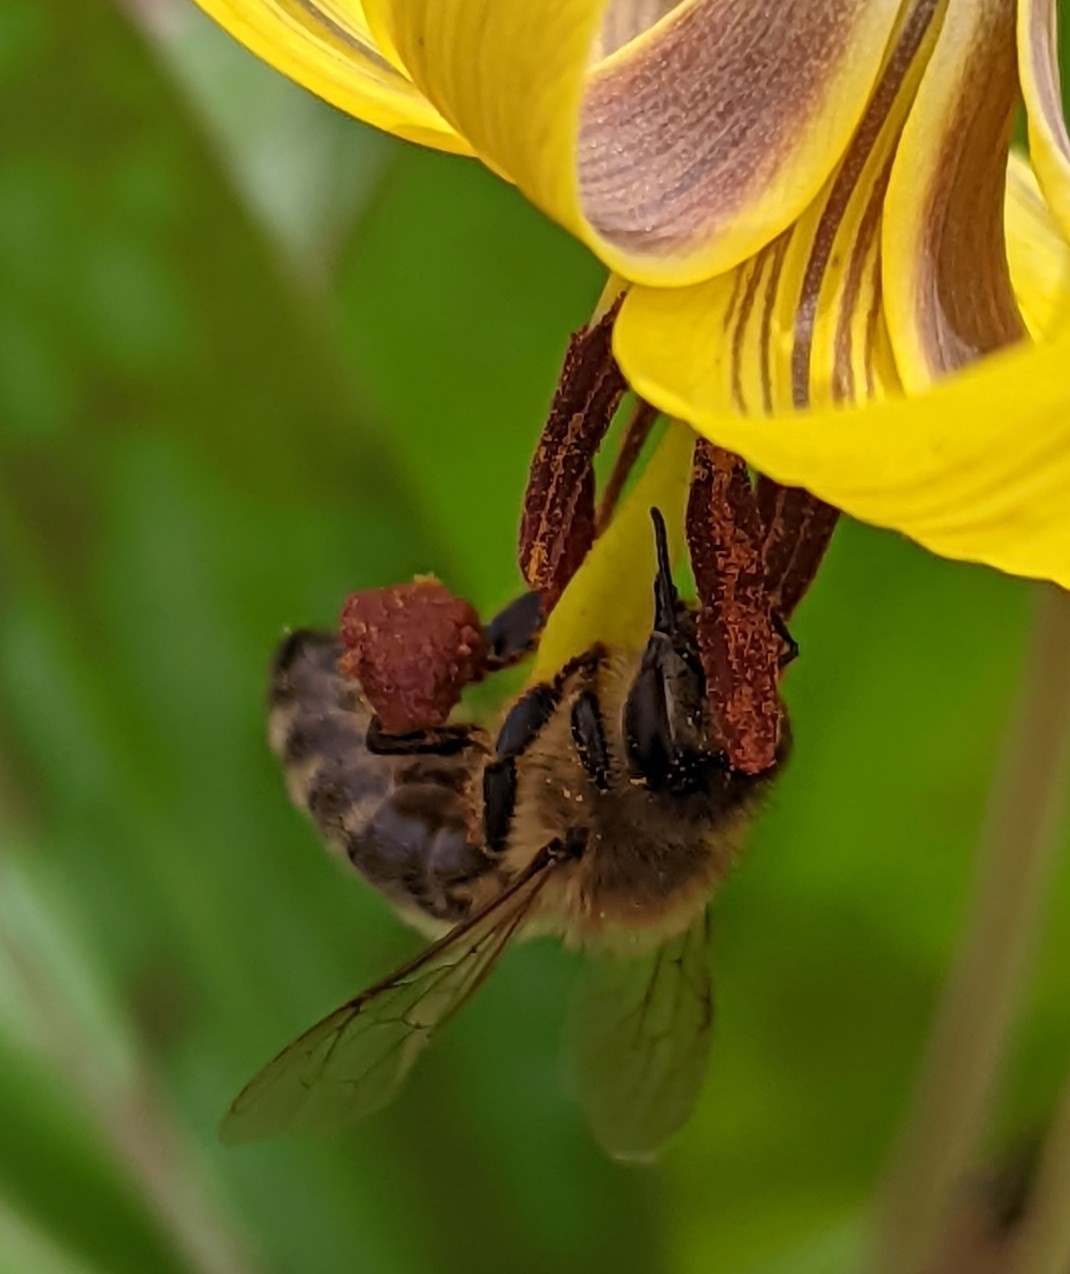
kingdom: Animalia
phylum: Arthropoda
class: Insecta
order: Hymenoptera
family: Apidae
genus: Apis
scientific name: Apis mellifera
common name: Honey bee
